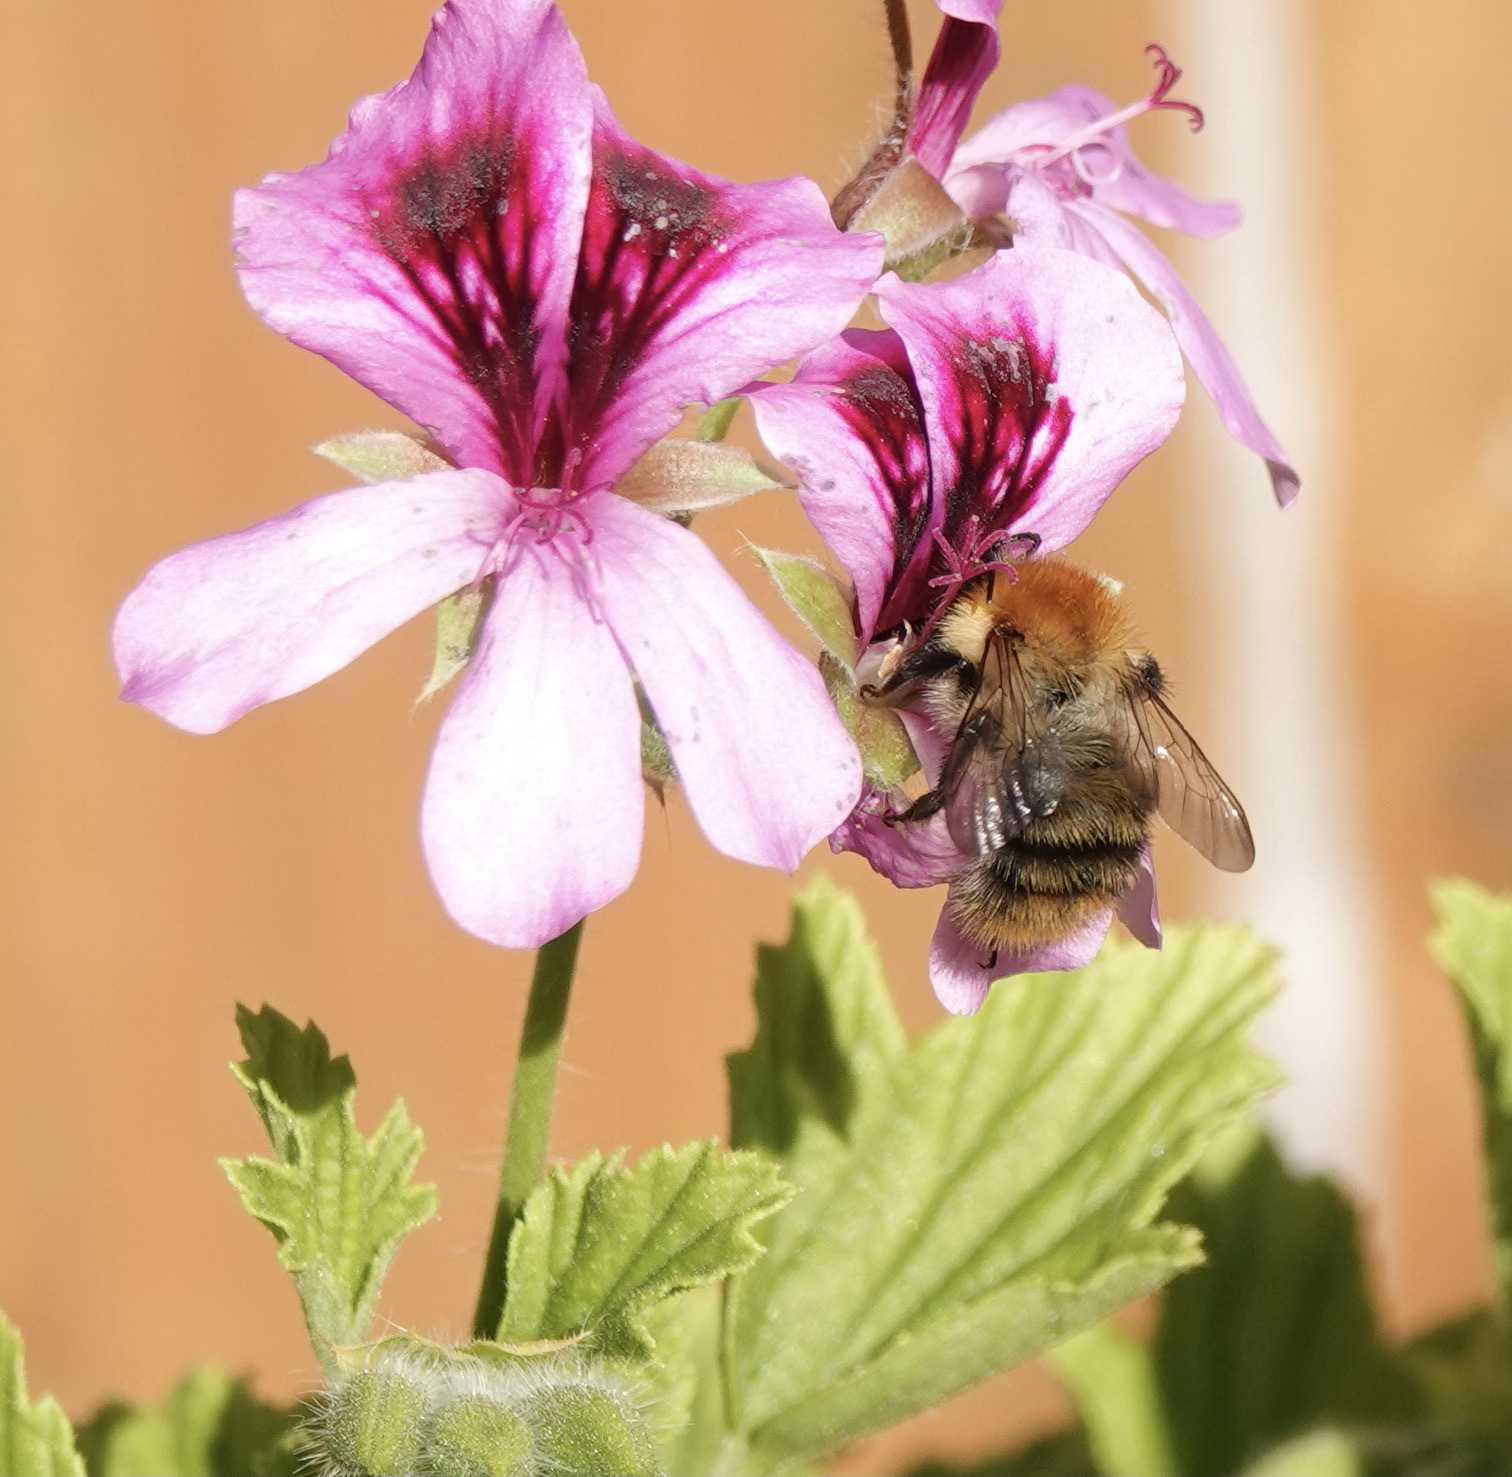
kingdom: Animalia
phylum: Arthropoda
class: Insecta
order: Hymenoptera
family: Apidae
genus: Bombus
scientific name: Bombus pascuorum
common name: Common carder bee
